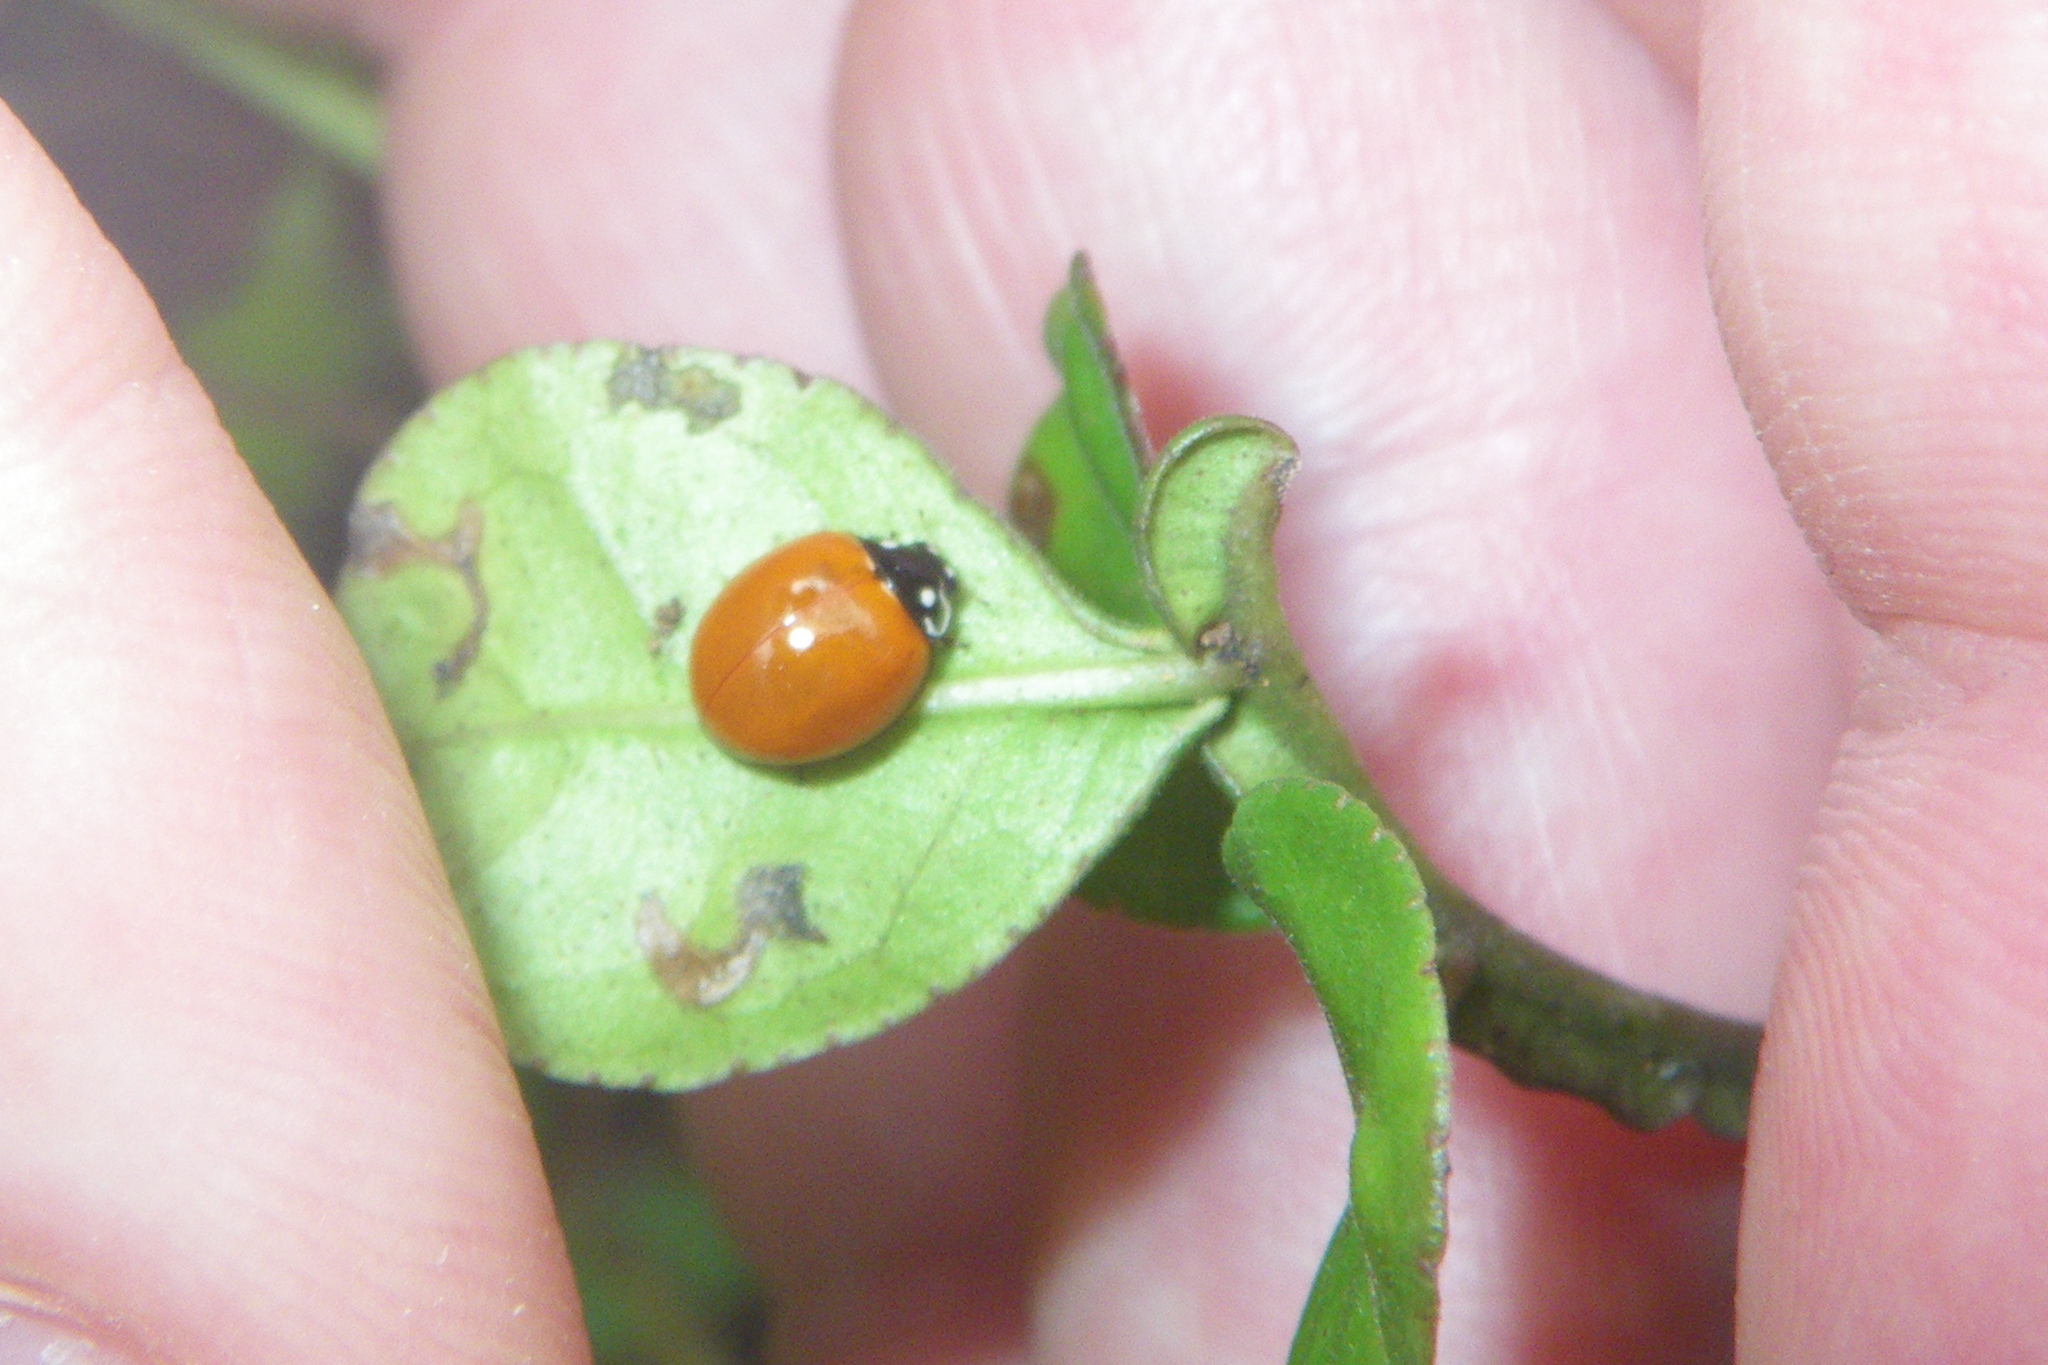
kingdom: Animalia
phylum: Arthropoda
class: Insecta
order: Coleoptera
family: Coccinellidae
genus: Cycloneda
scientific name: Cycloneda sanguinea
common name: Ladybird beetle
